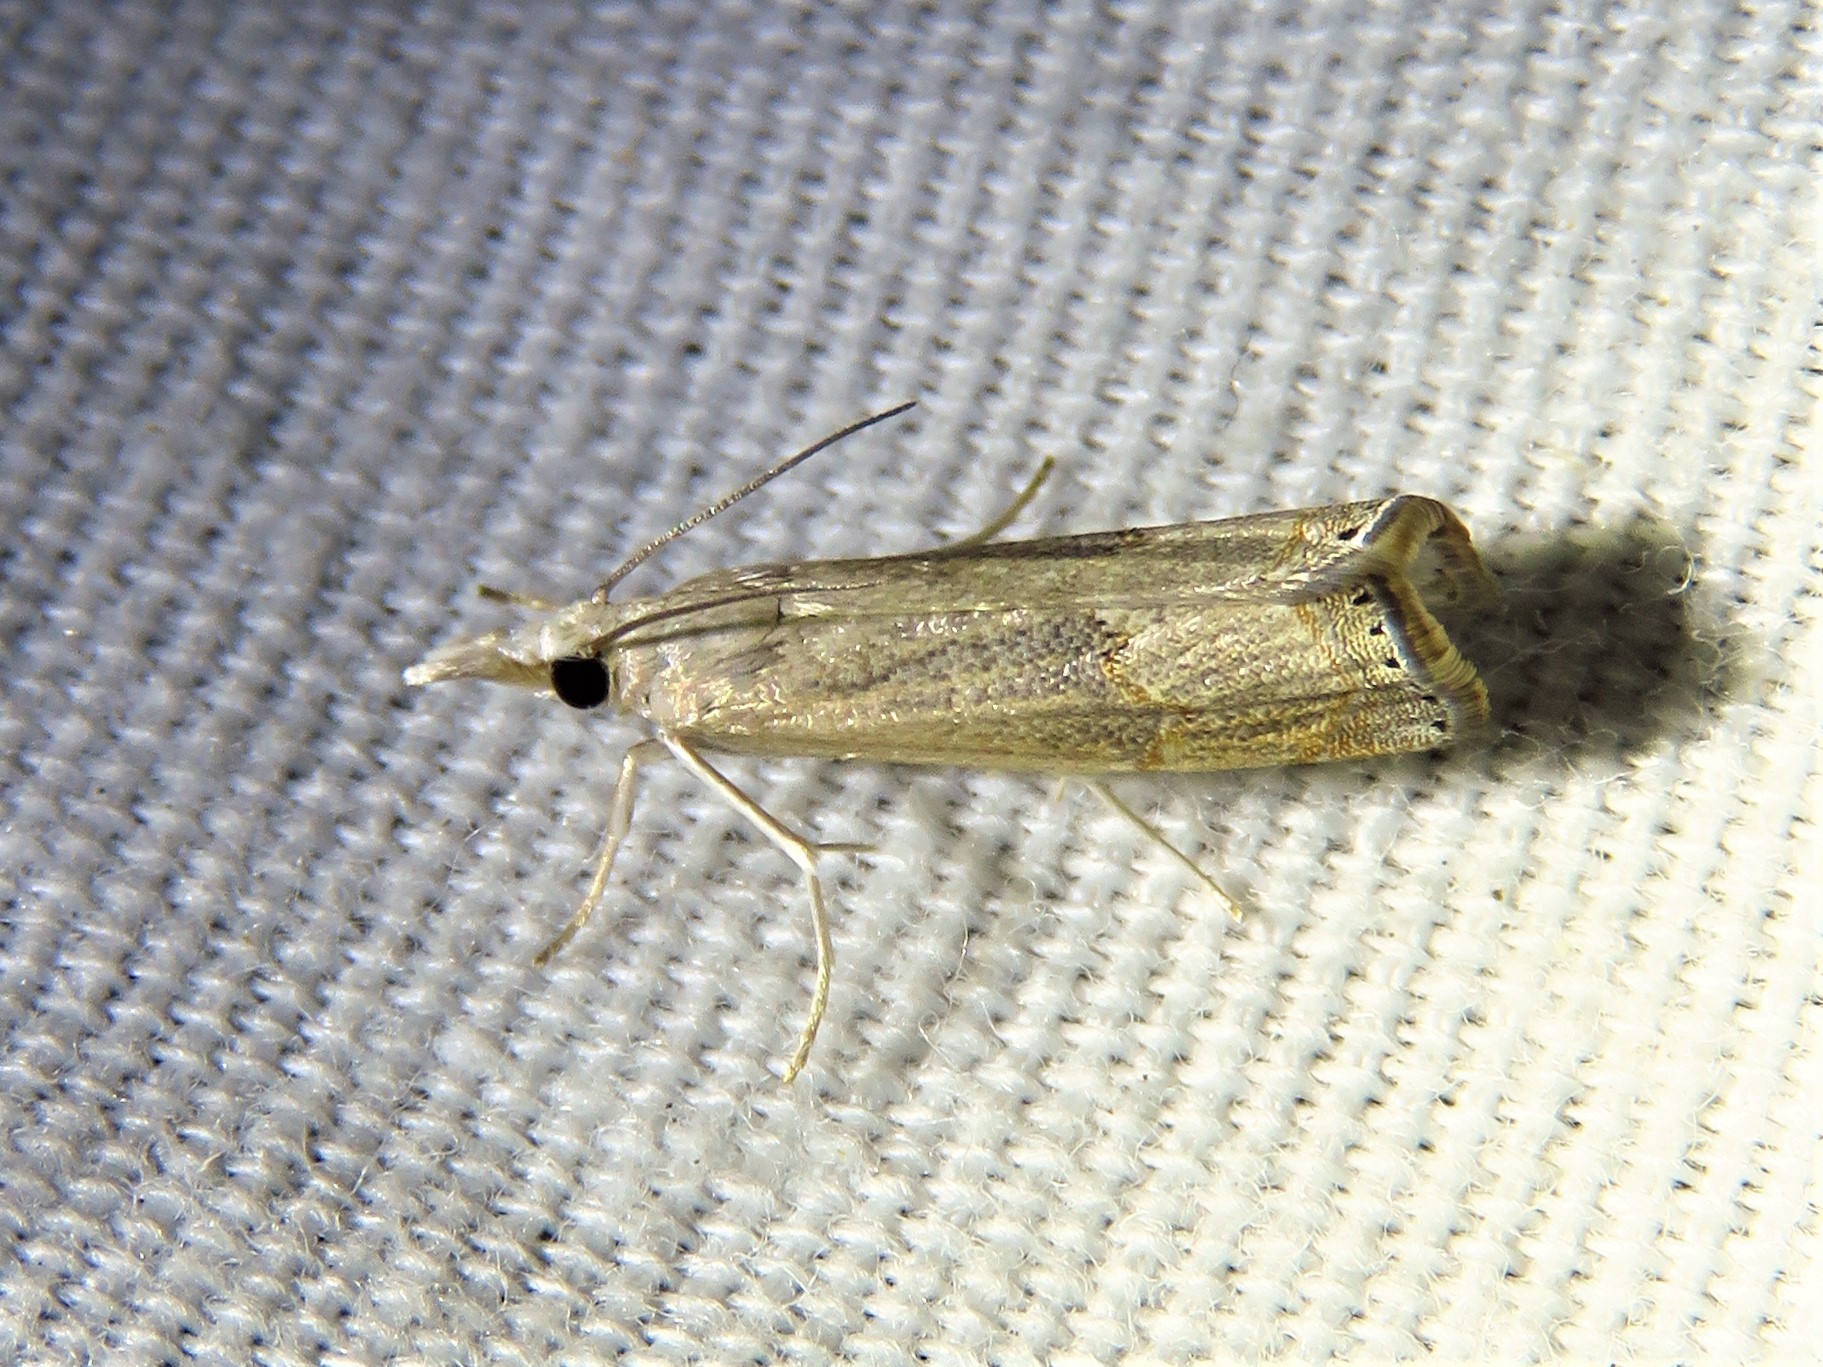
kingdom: Animalia
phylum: Arthropoda
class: Insecta
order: Lepidoptera
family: Crambidae
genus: Parapediasia
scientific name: Parapediasia teterellus
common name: Bluegrass webworm moth
